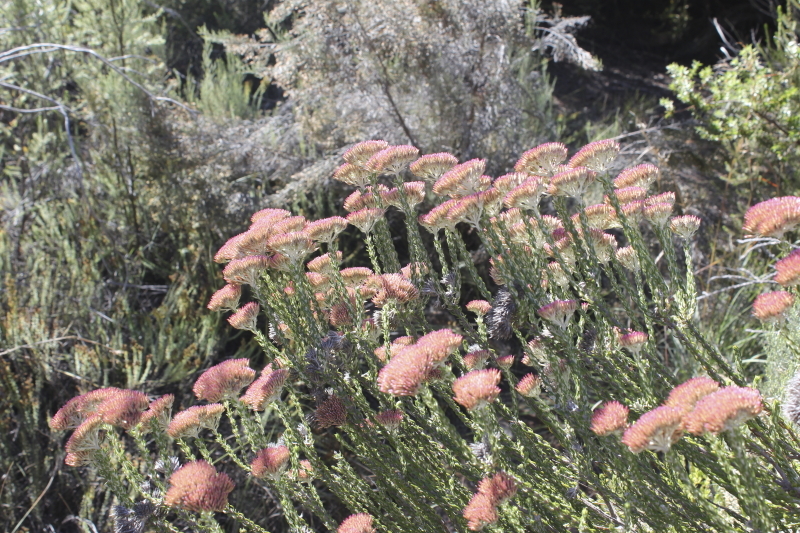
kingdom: Plantae
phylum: Tracheophyta
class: Magnoliopsida
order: Asterales
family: Asteraceae
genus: Metalasia
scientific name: Metalasia pungens
